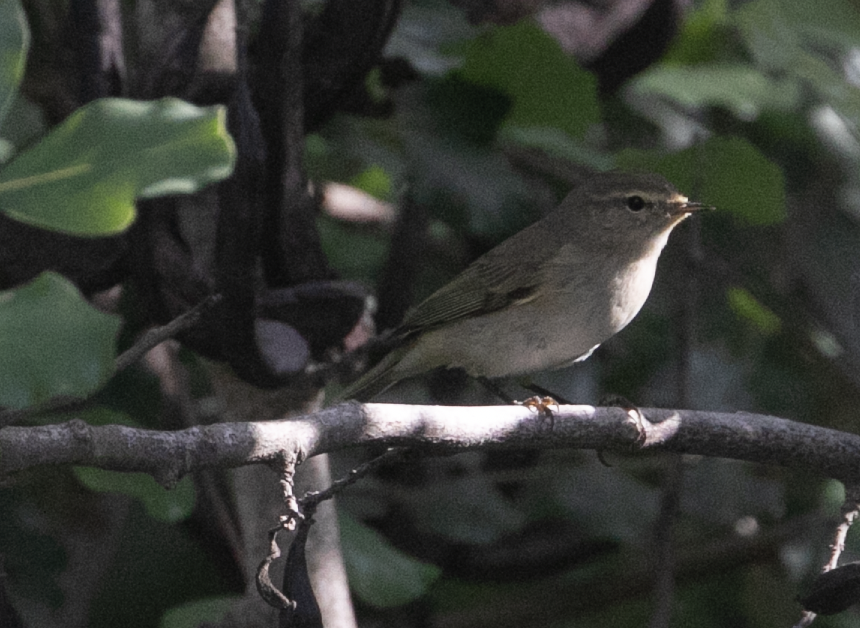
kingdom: Animalia
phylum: Chordata
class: Aves
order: Passeriformes
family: Phylloscopidae
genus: Phylloscopus
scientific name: Phylloscopus collybita
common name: Common chiffchaff
